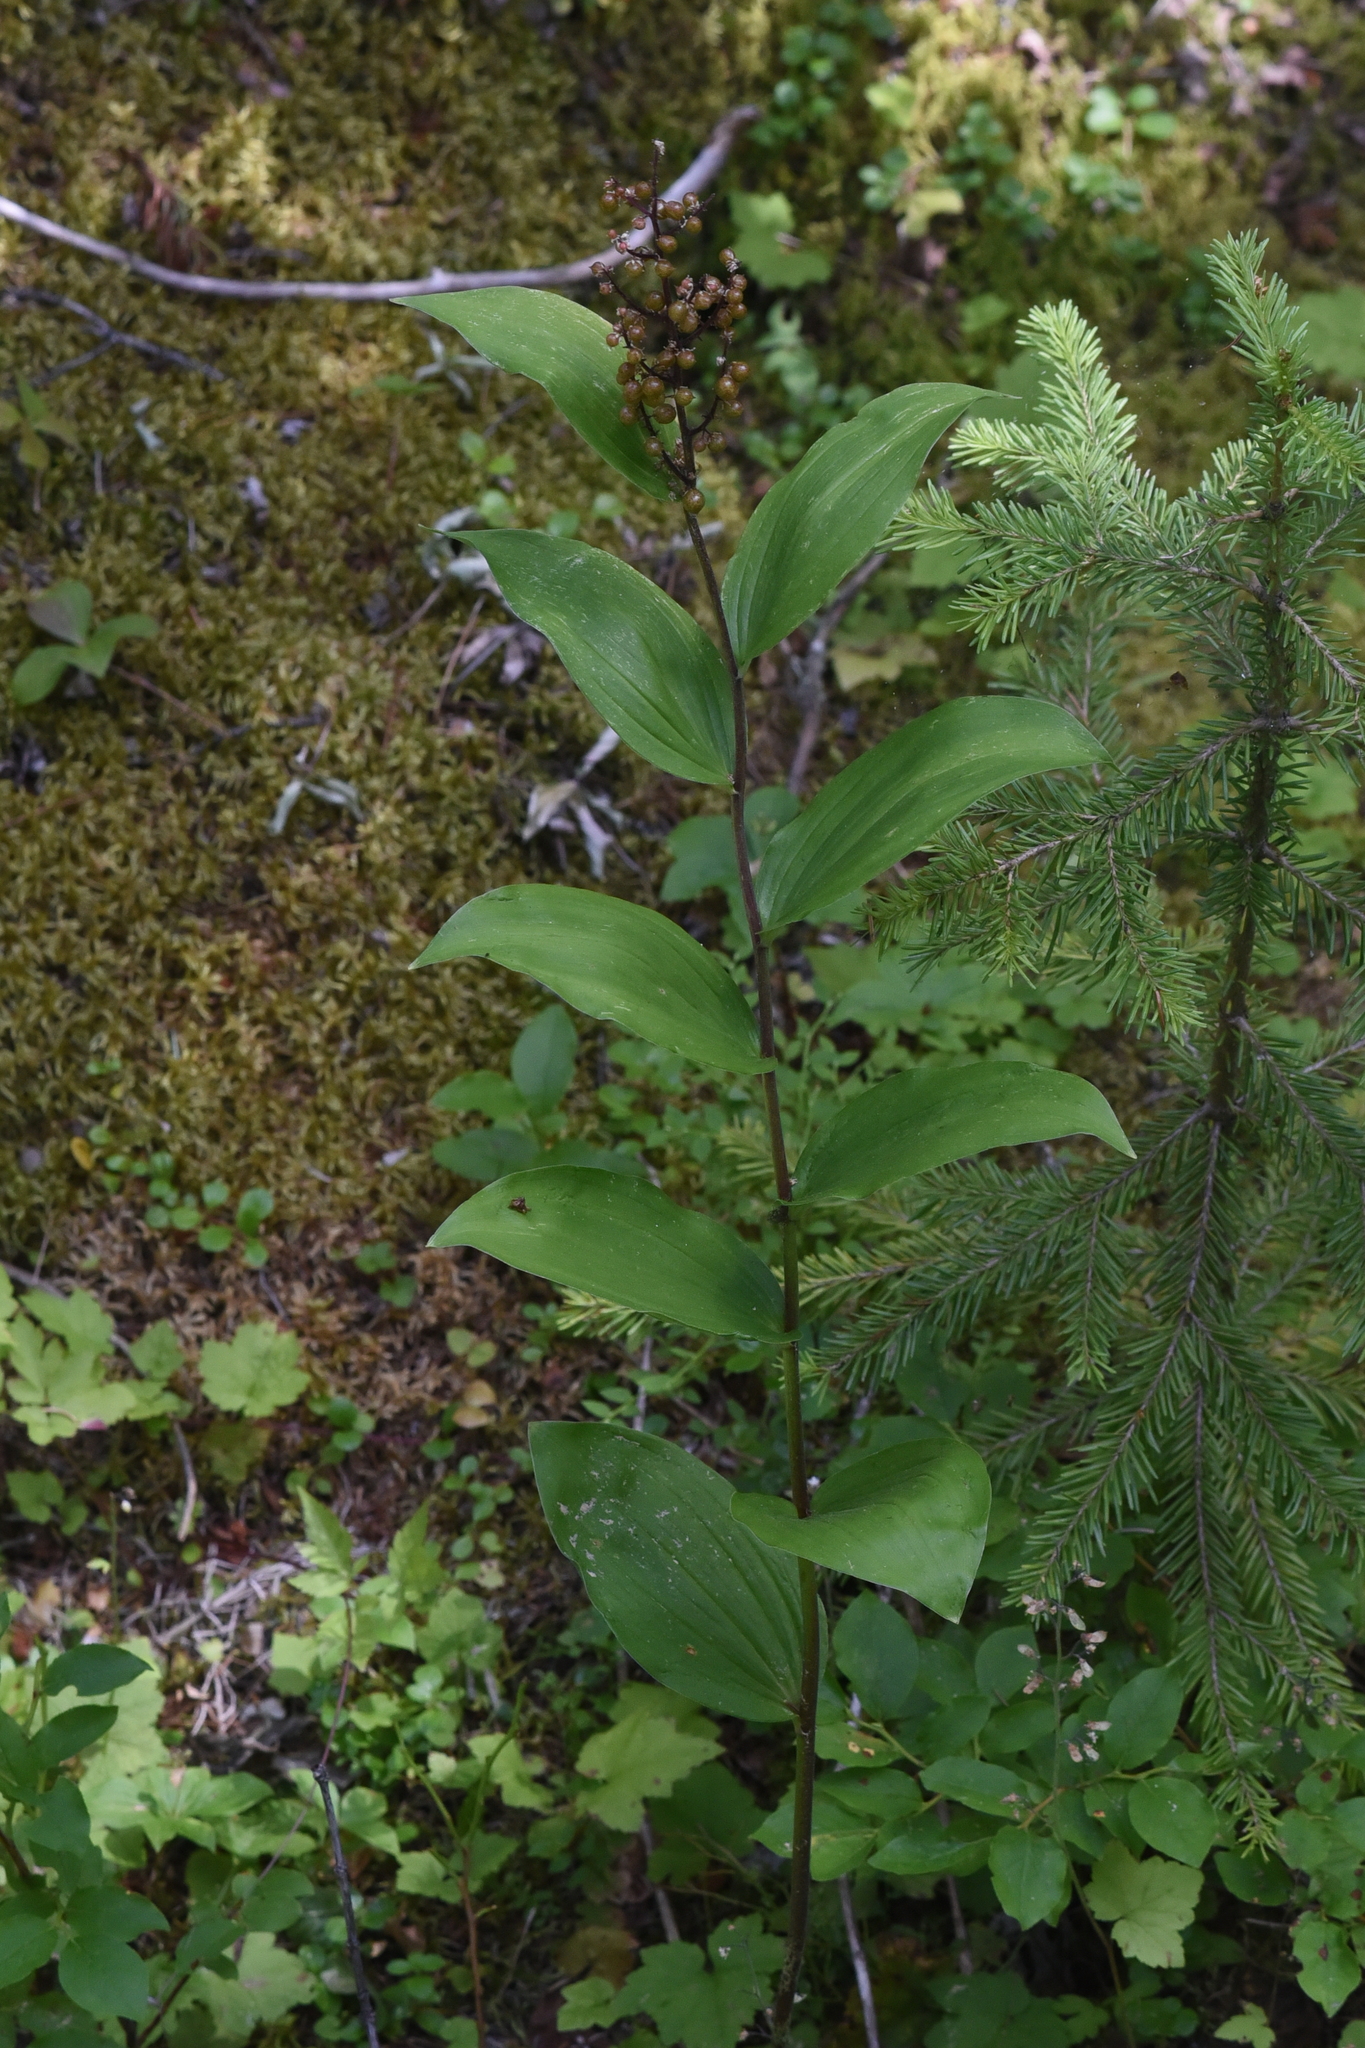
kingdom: Plantae
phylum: Tracheophyta
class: Liliopsida
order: Asparagales
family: Asparagaceae
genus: Maianthemum
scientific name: Maianthemum racemosum
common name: False spikenard
